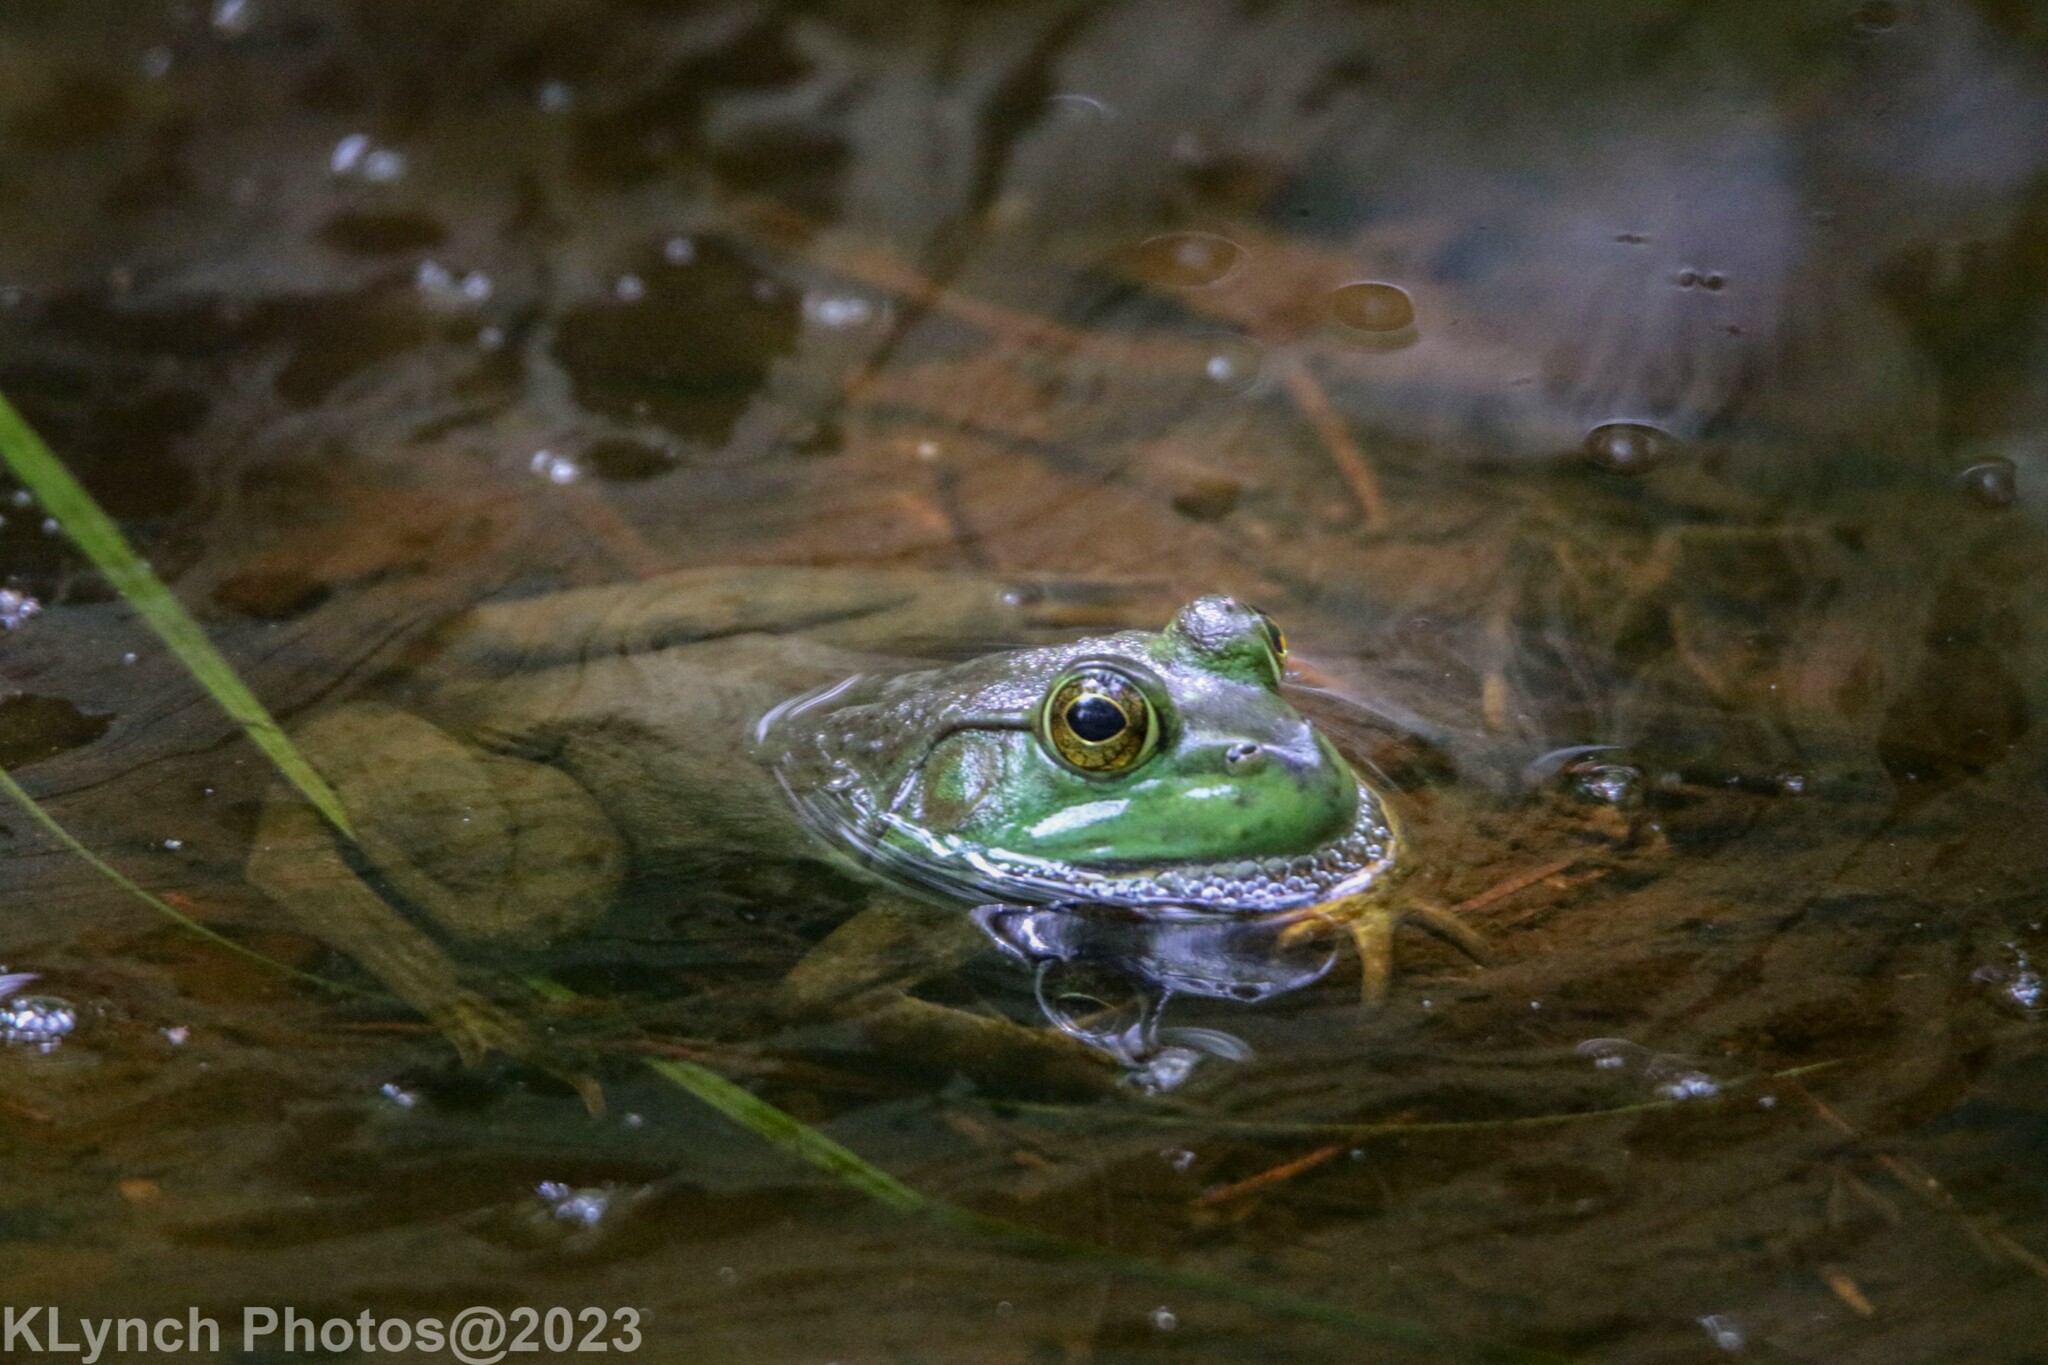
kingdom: Animalia
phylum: Chordata
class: Amphibia
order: Anura
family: Ranidae
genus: Lithobates
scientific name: Lithobates catesbeianus
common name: American bullfrog
